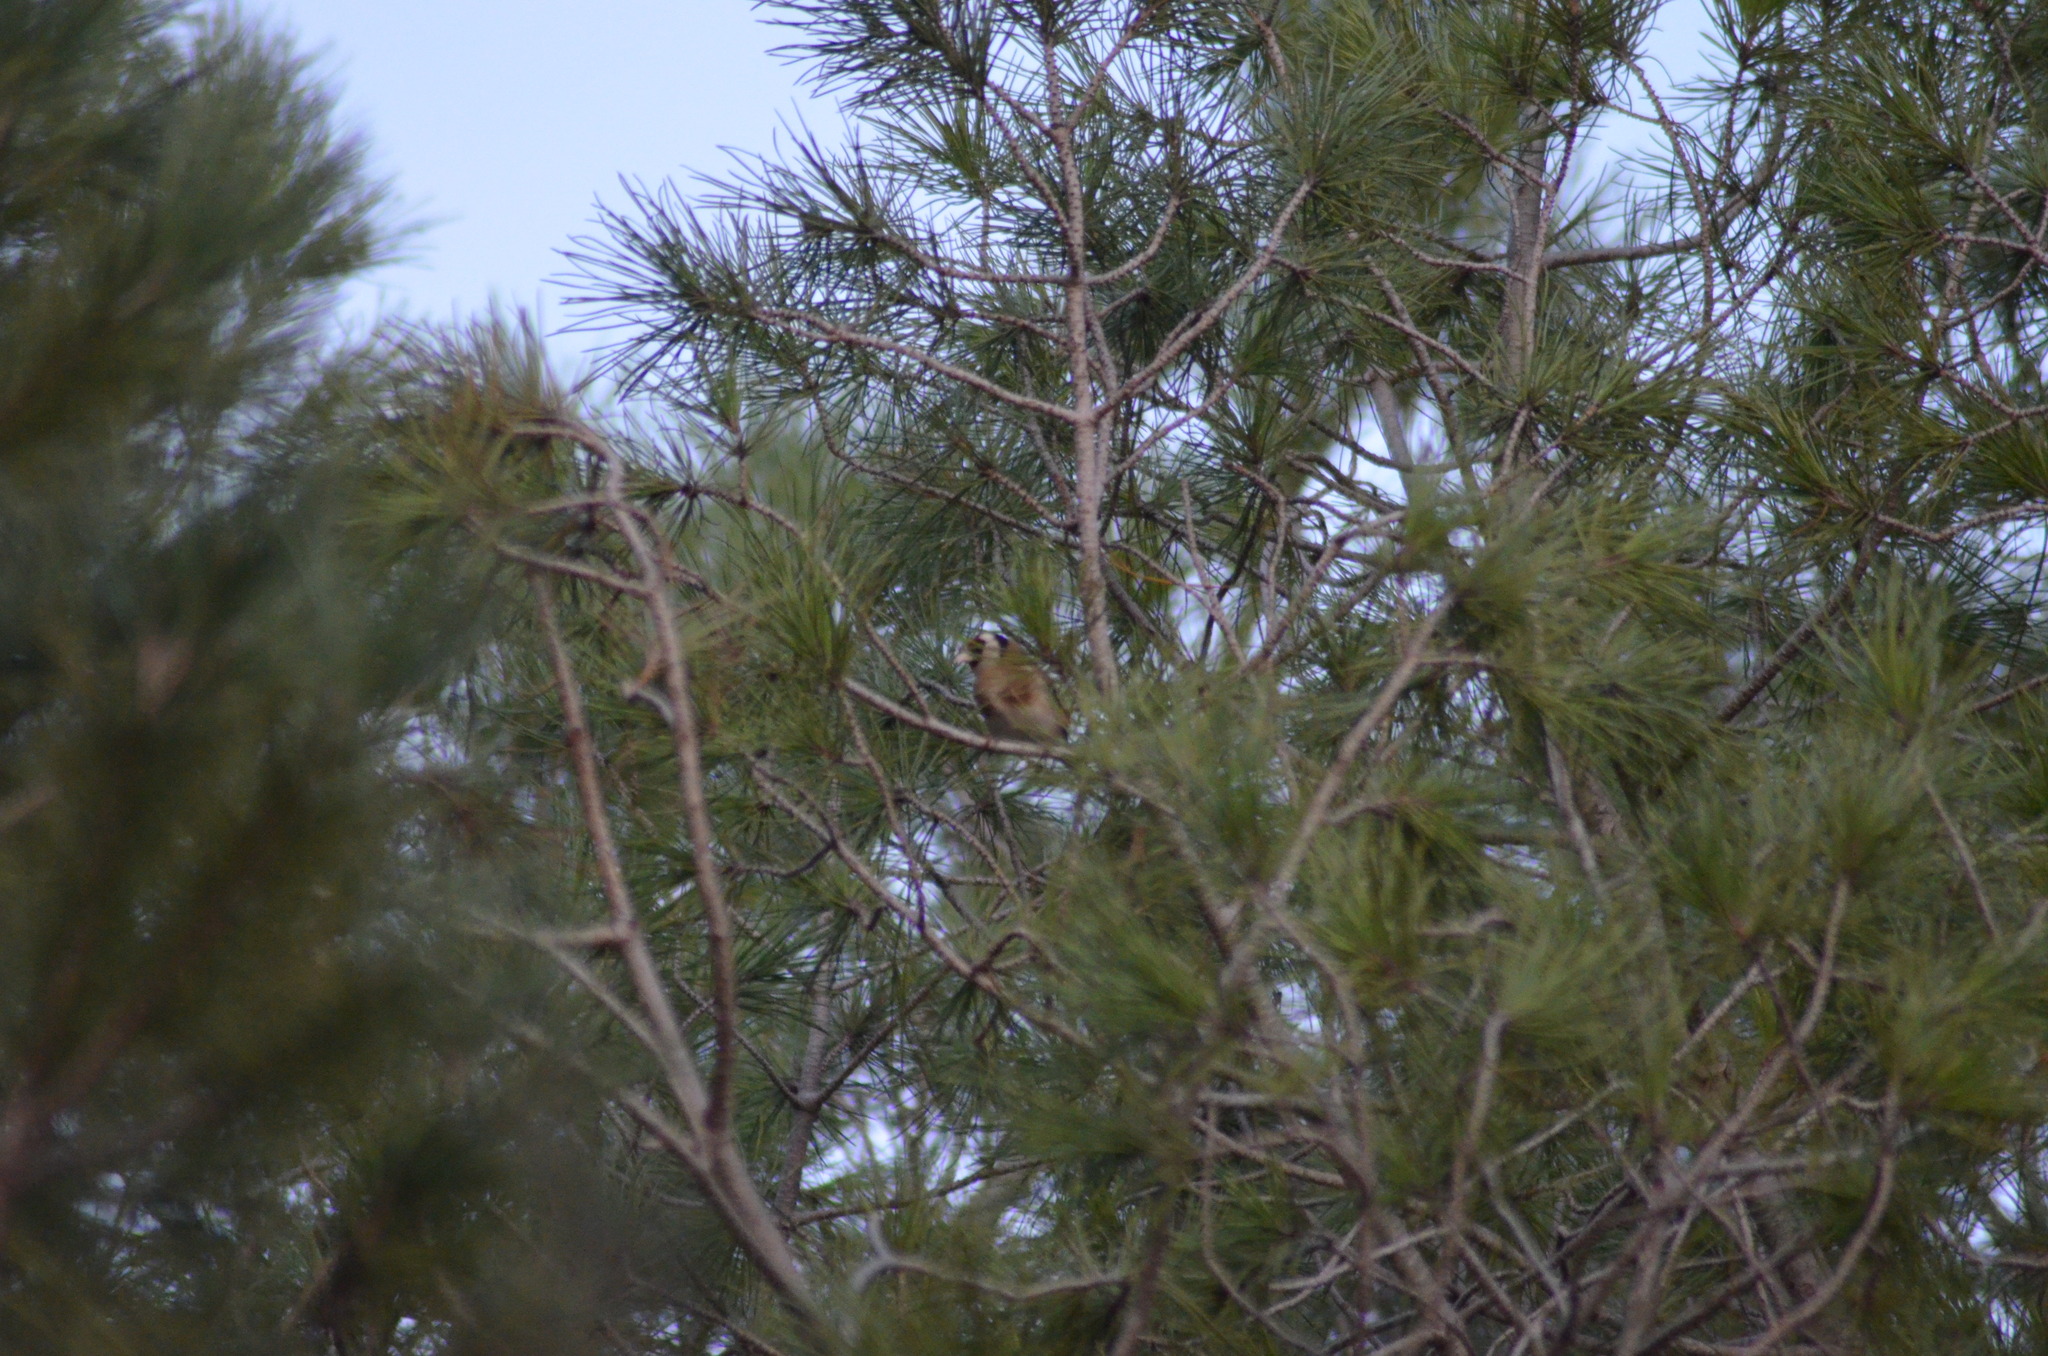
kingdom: Animalia
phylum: Chordata
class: Aves
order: Passeriformes
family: Fringillidae
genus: Carduelis
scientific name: Carduelis carduelis
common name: European goldfinch
